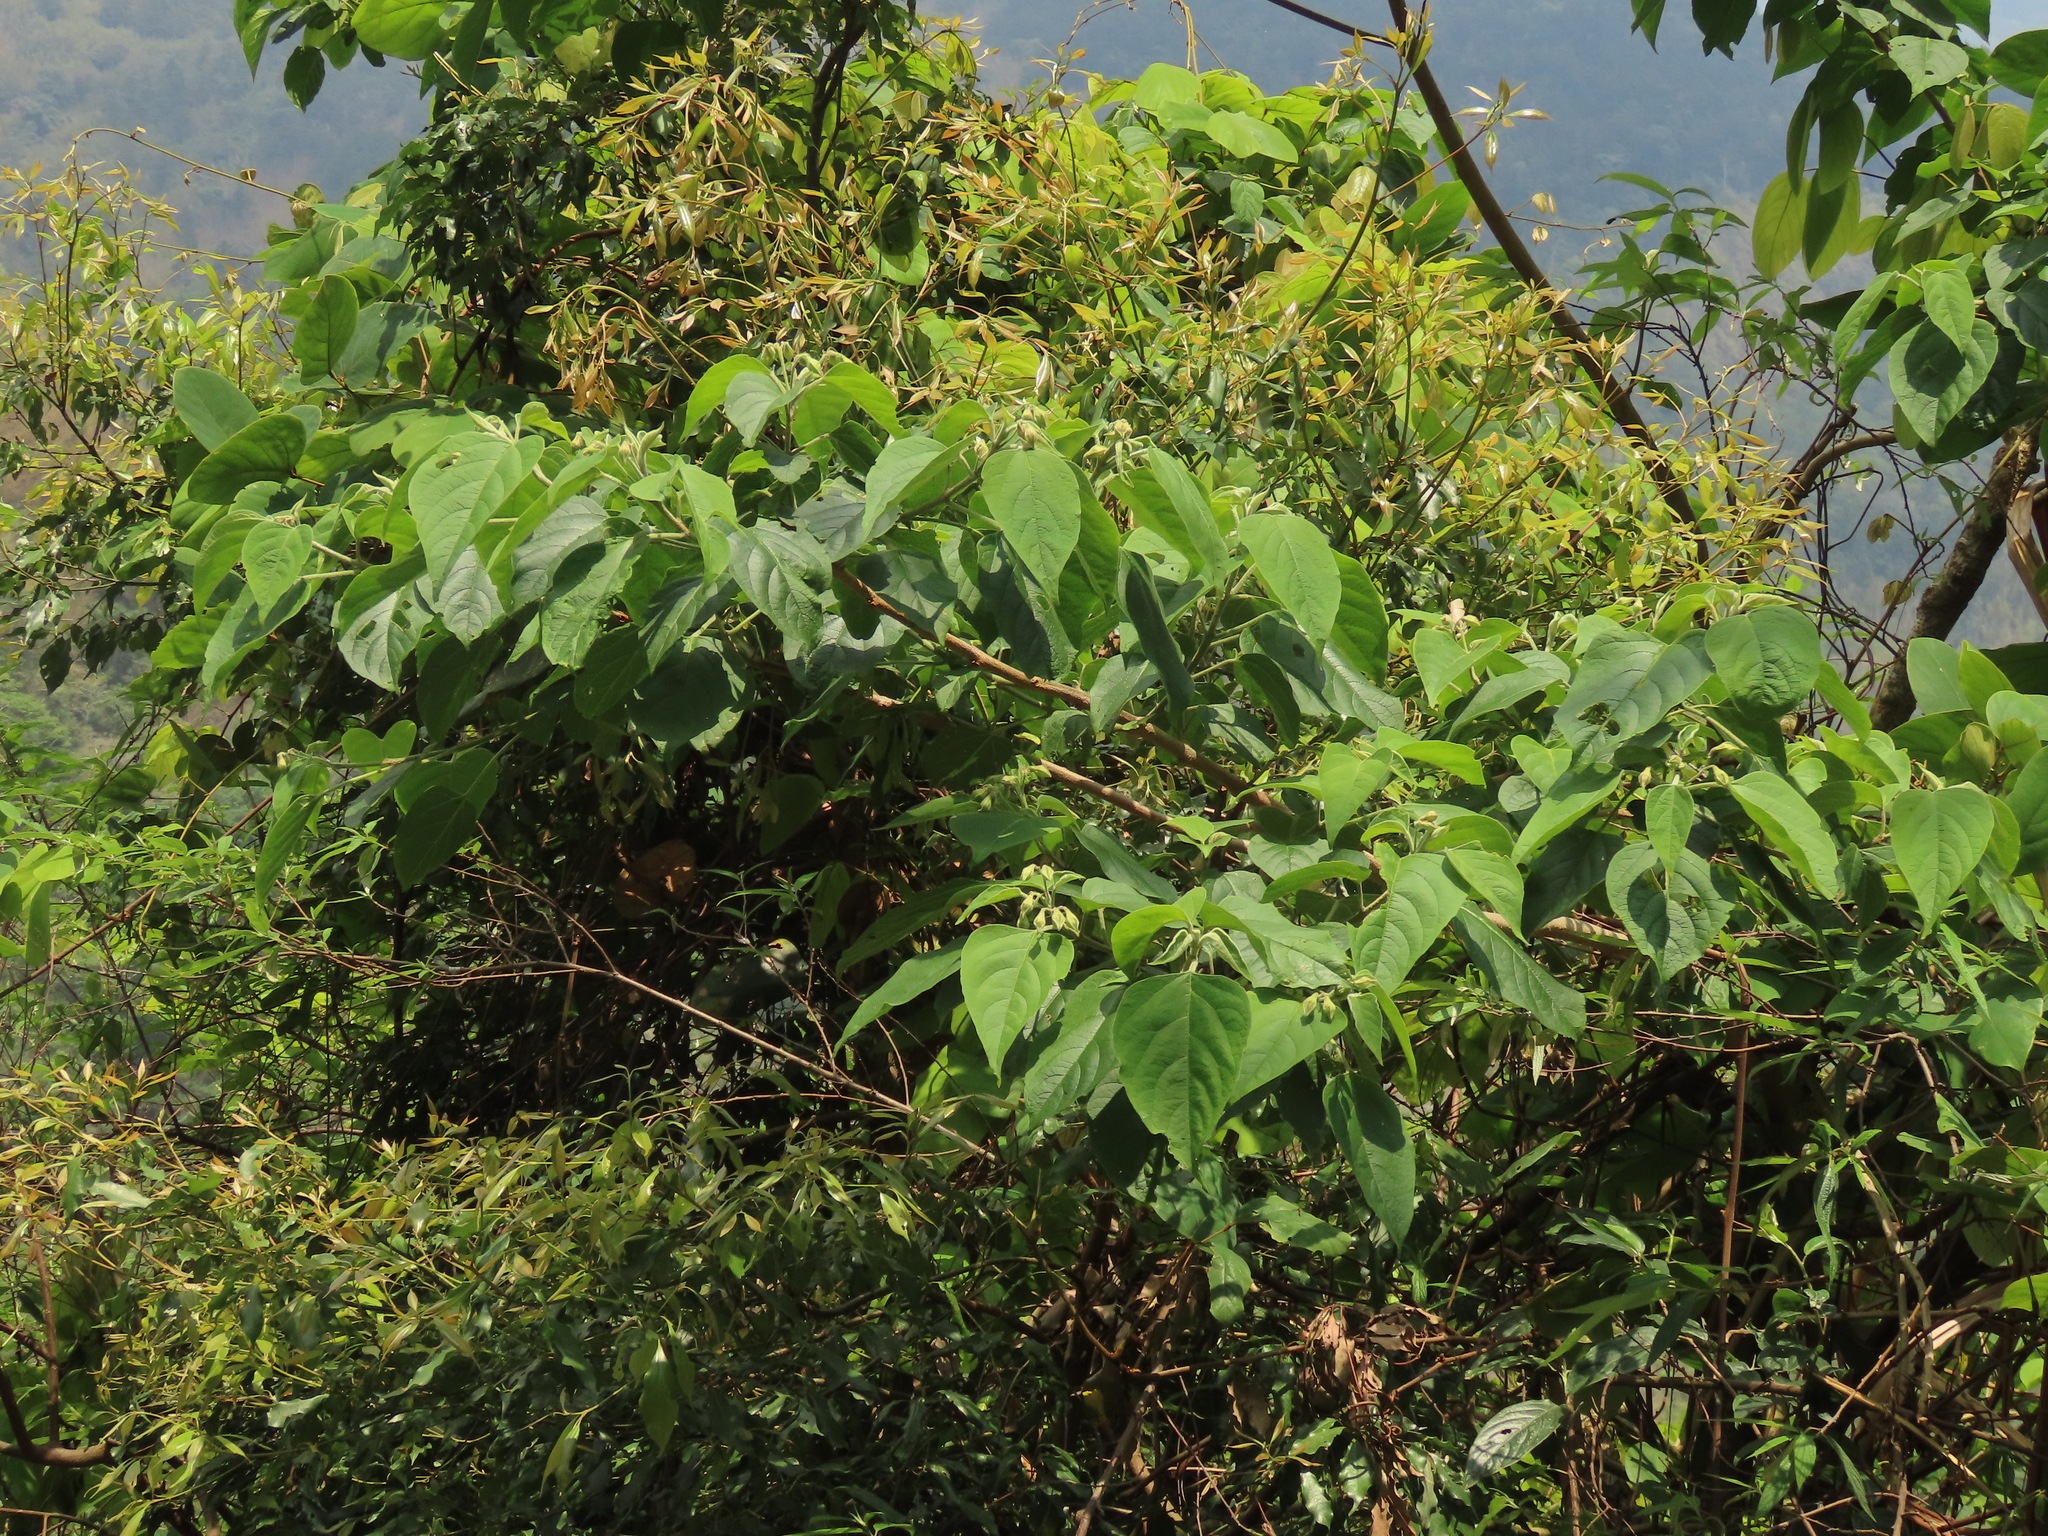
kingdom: Plantae
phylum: Tracheophyta
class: Magnoliopsida
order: Lamiales
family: Lamiaceae
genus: Clerodendrum
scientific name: Clerodendrum trichotomum
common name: Harlequin glorybower
